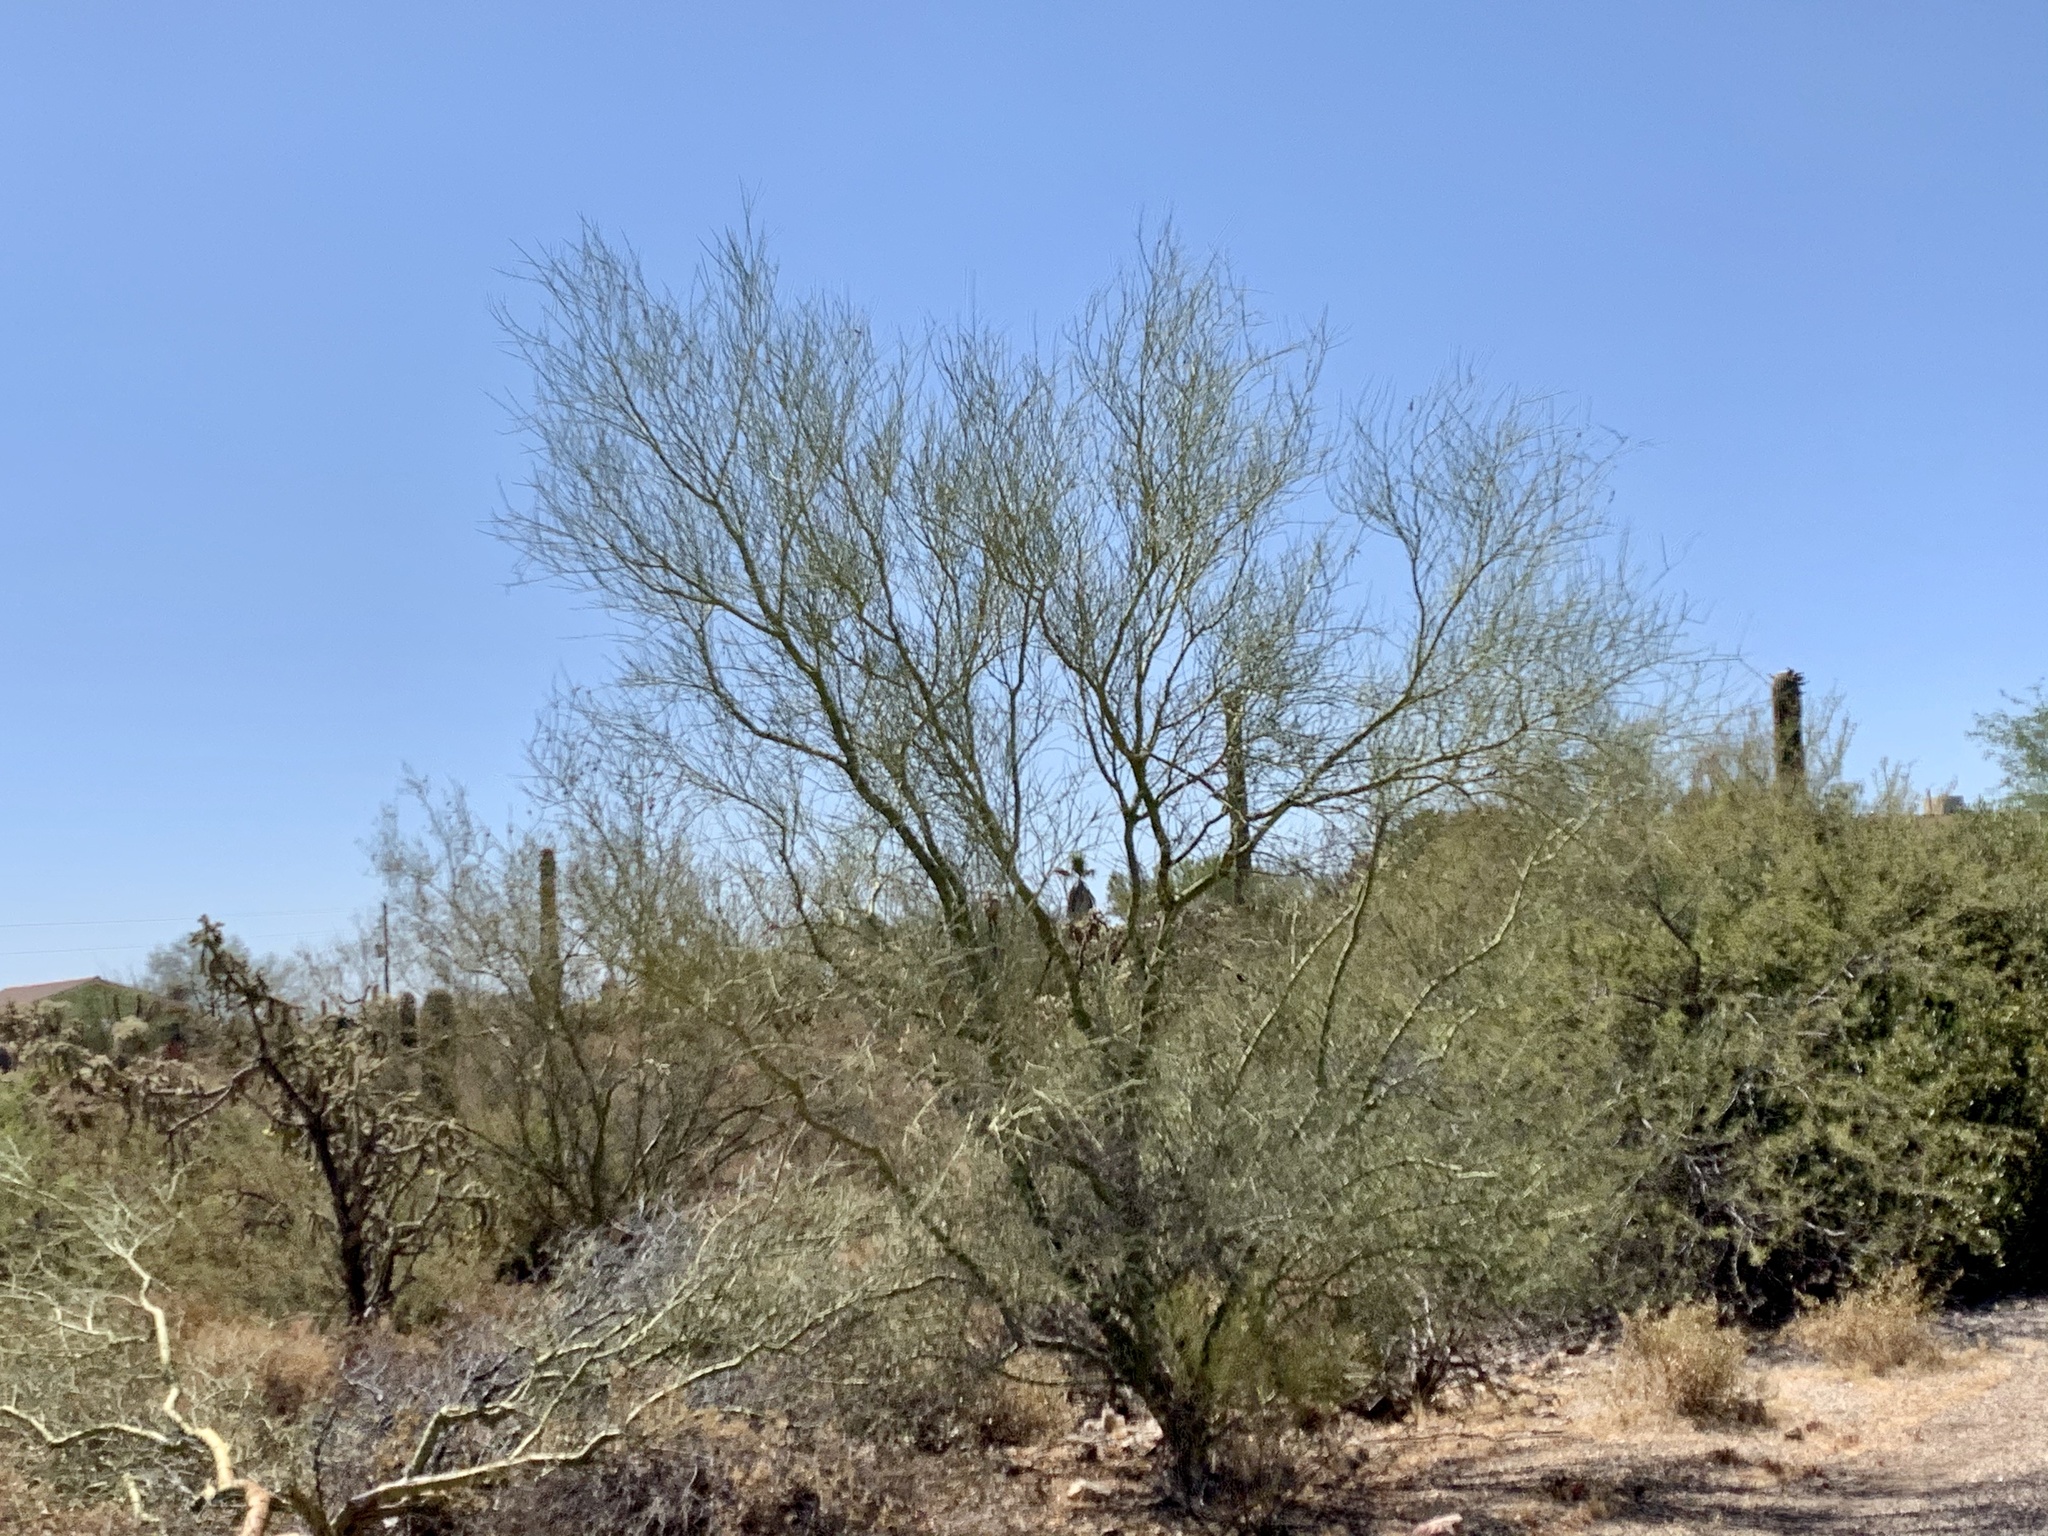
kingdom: Plantae
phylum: Tracheophyta
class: Magnoliopsida
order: Fabales
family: Fabaceae
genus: Parkinsonia
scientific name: Parkinsonia microphylla
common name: Yellow paloverde
